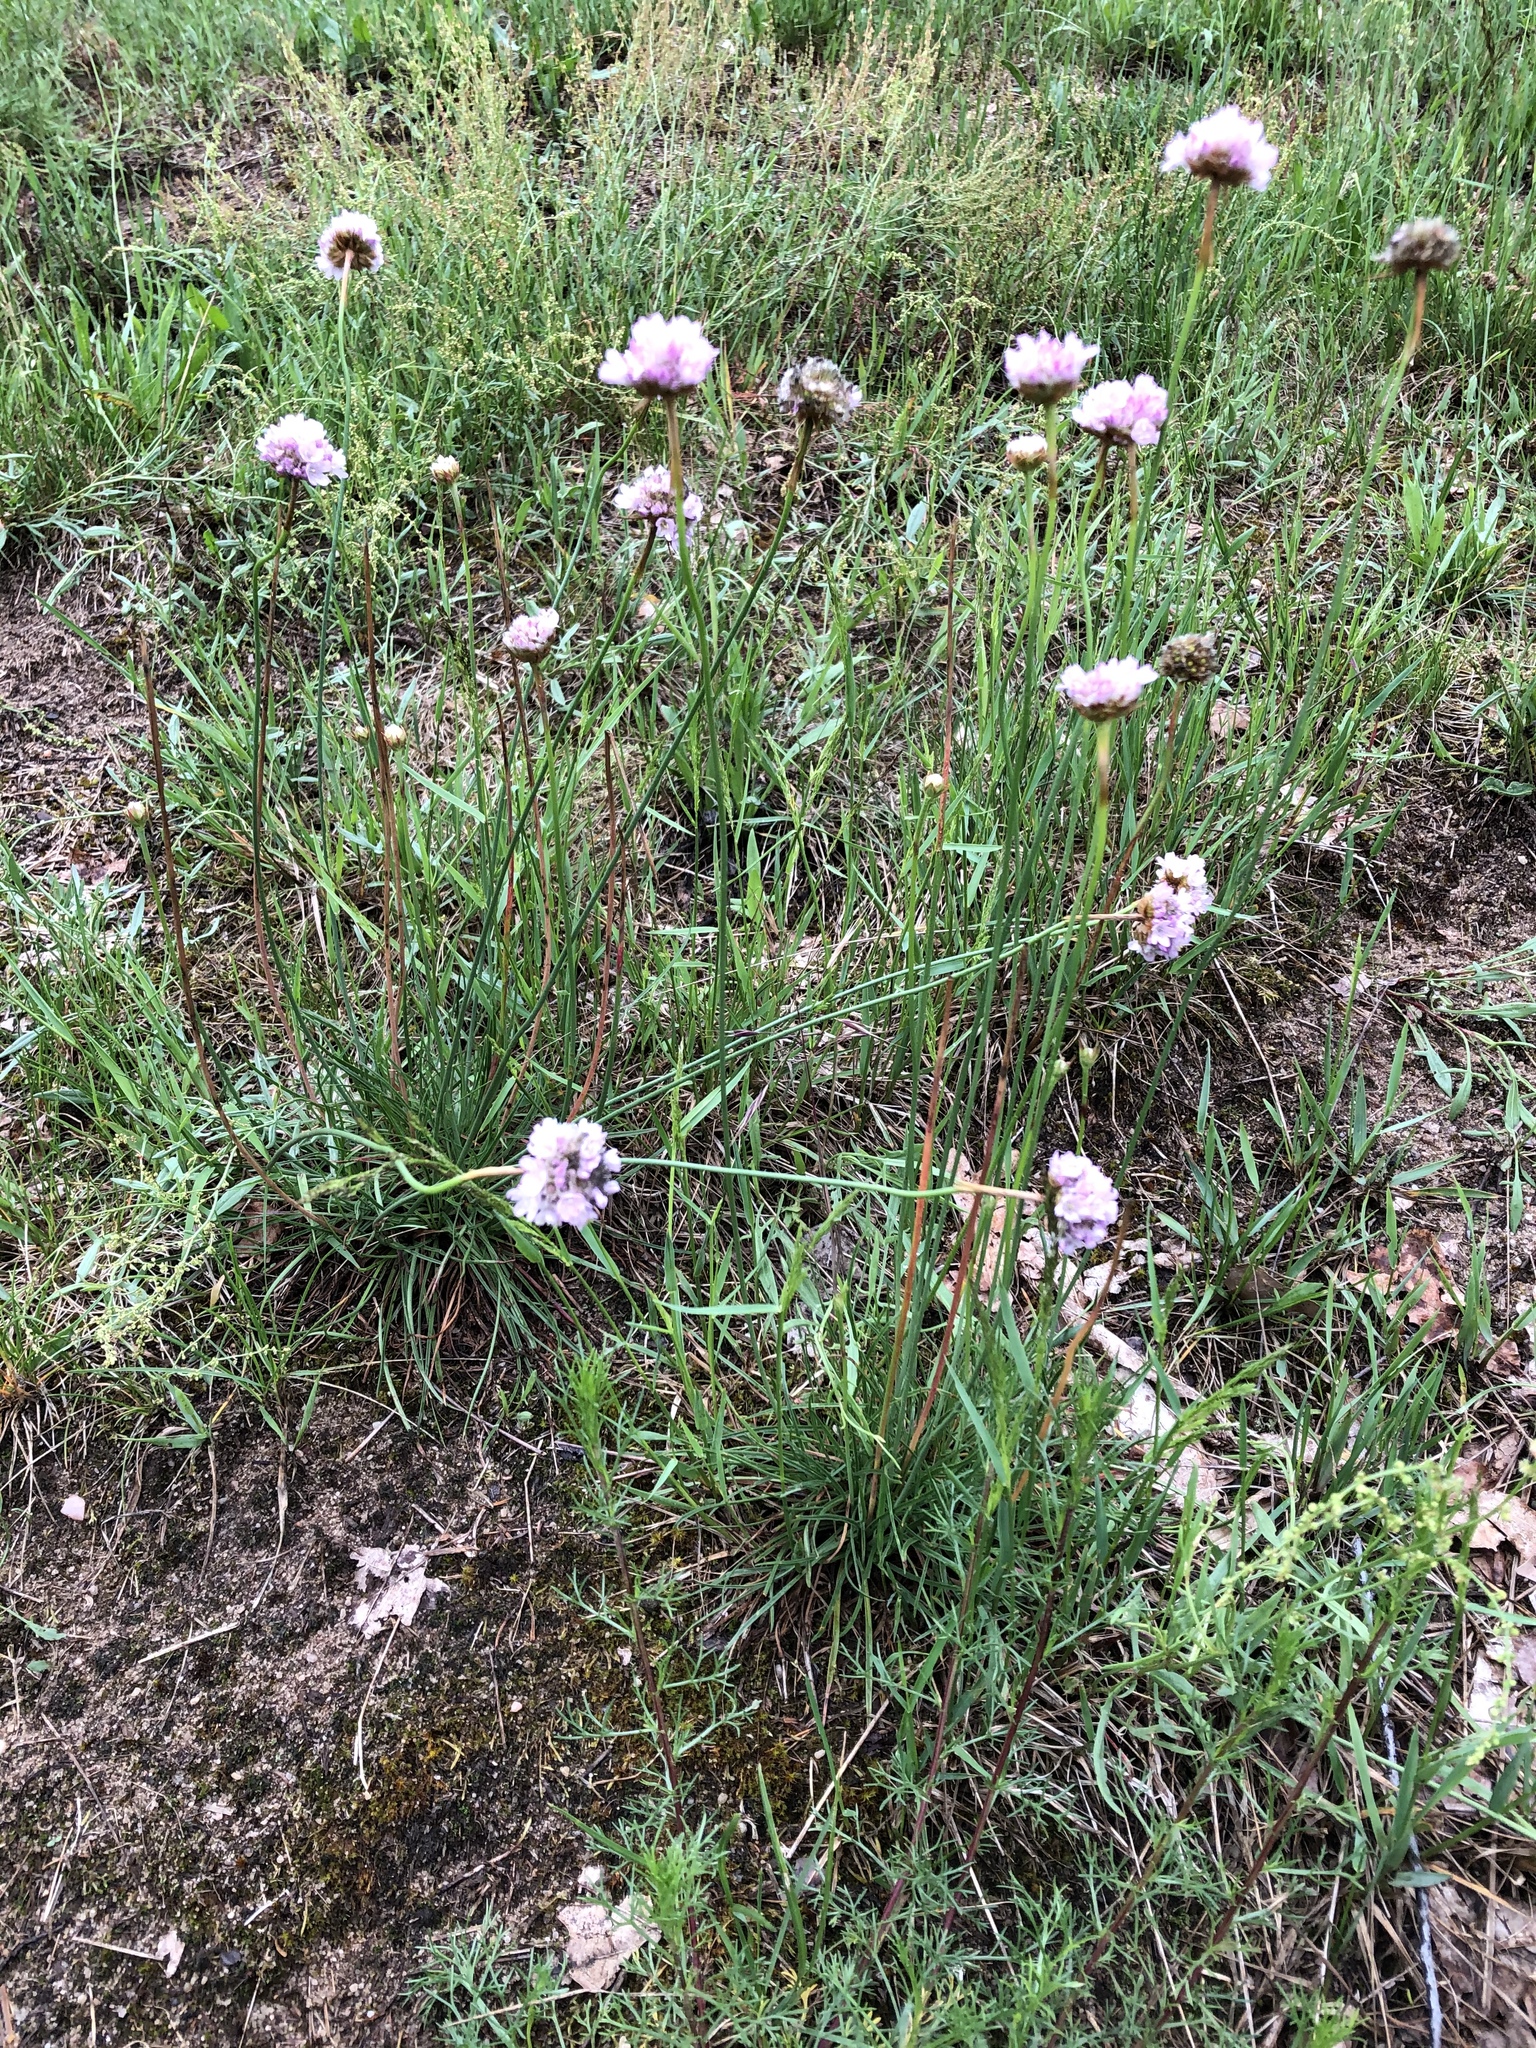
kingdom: Plantae
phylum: Tracheophyta
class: Magnoliopsida
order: Caryophyllales
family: Plumbaginaceae
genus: Armeria
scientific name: Armeria maritima
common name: Thrift
